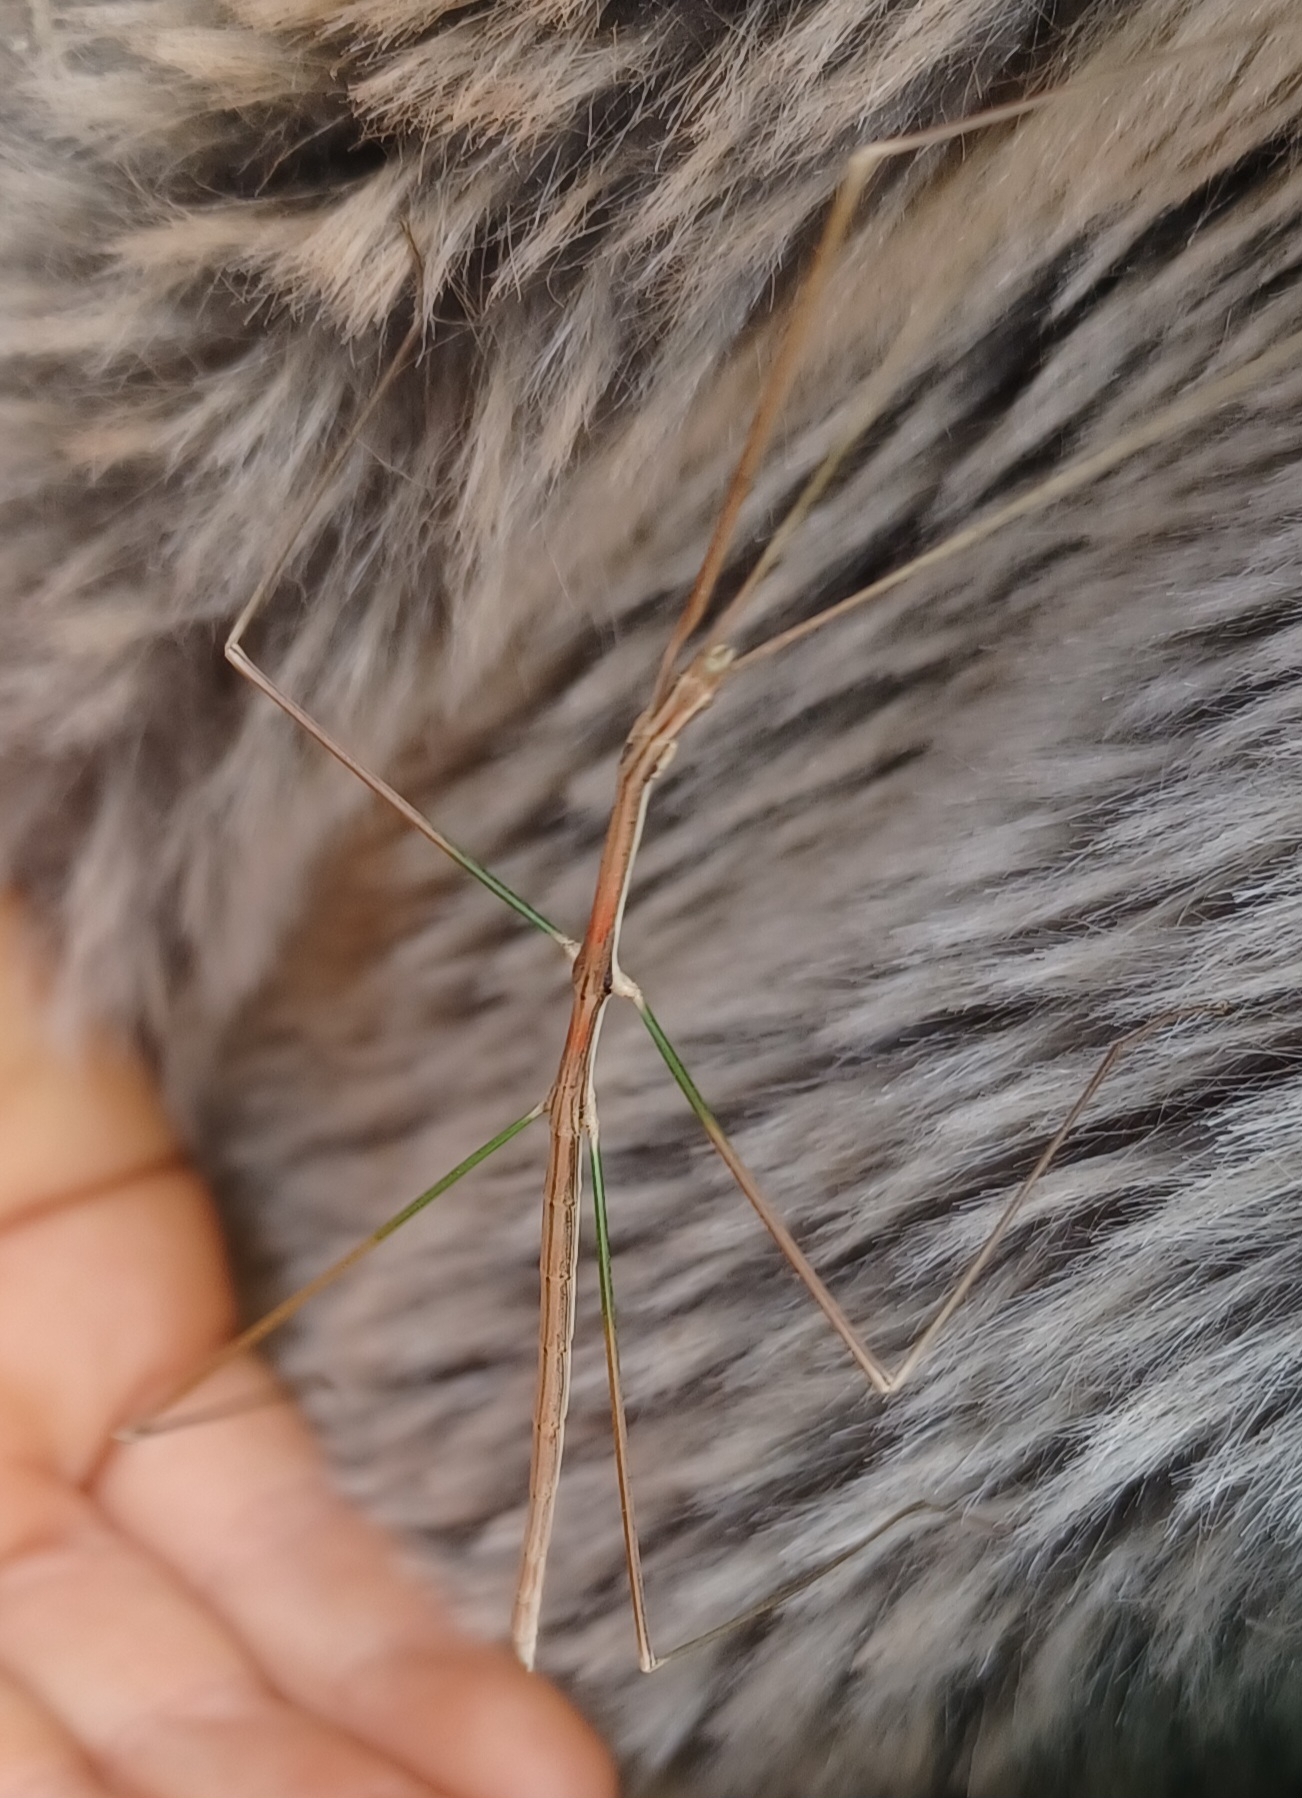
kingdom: Animalia
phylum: Arthropoda
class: Insecta
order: Phasmida
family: Lonchodidae
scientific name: Lonchodidae
